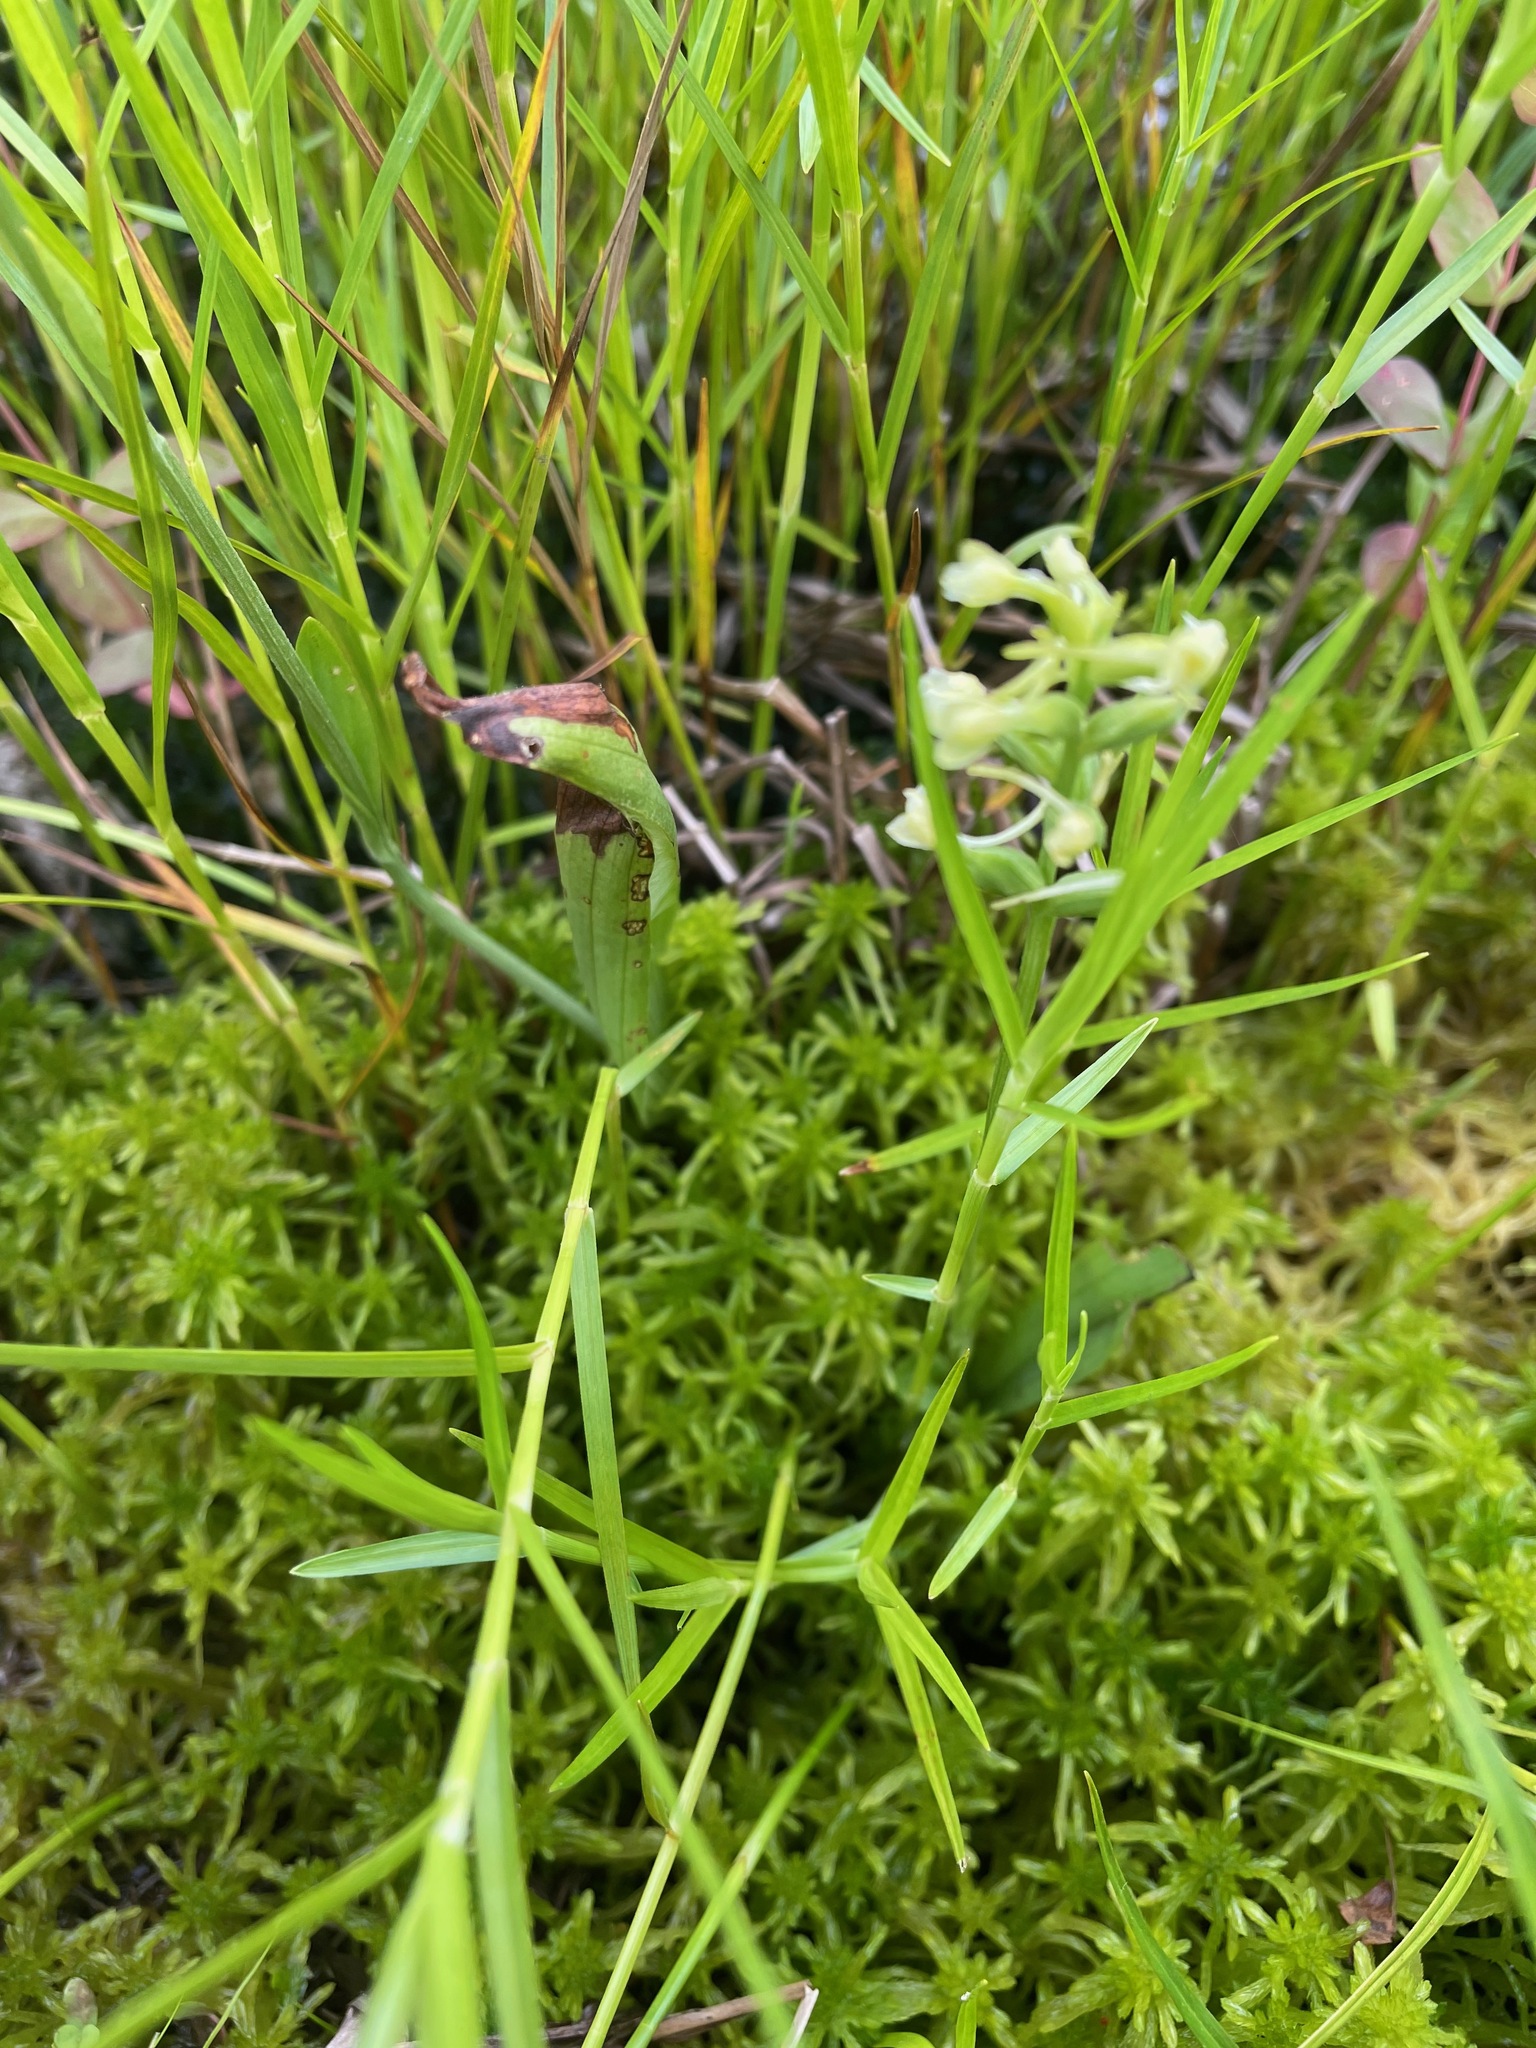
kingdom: Plantae
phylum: Tracheophyta
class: Liliopsida
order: Asparagales
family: Orchidaceae
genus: Platanthera
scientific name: Platanthera clavellata
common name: Club-spur orchid
